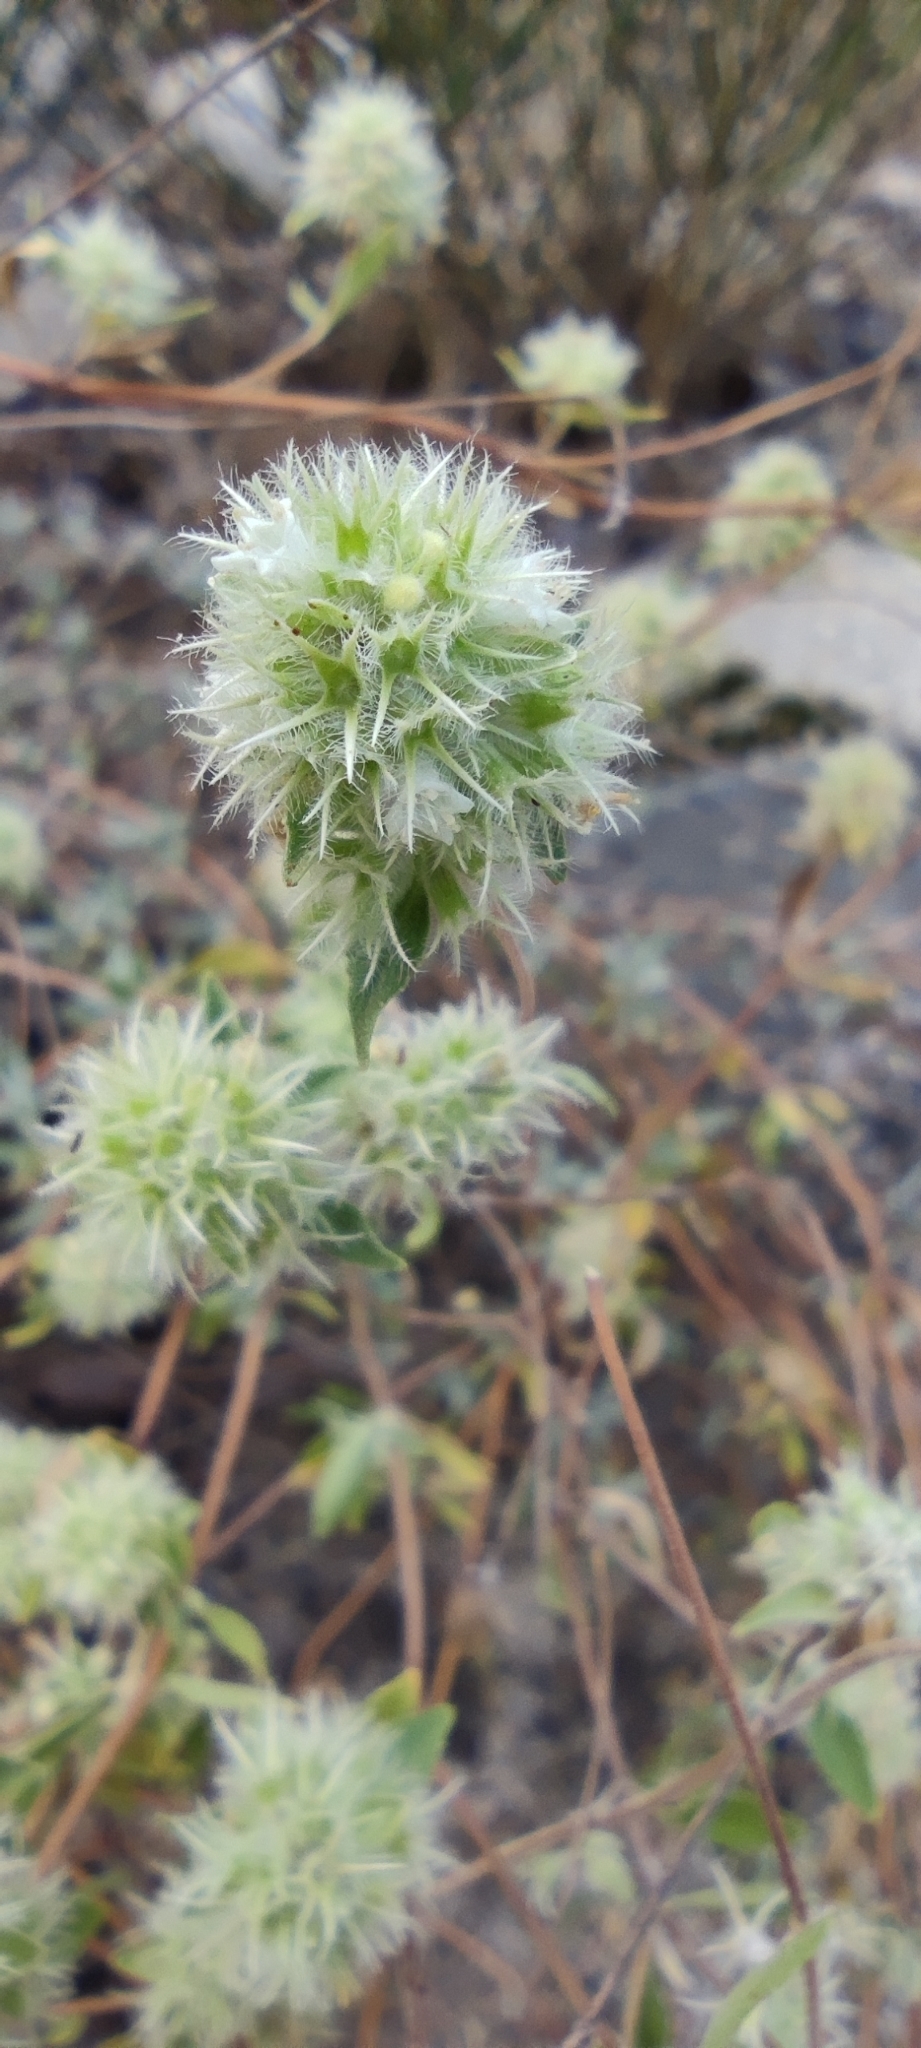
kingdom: Plantae
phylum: Tracheophyta
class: Magnoliopsida
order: Lamiales
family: Lamiaceae
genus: Thymus
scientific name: Thymus mastichina
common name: Mastic thyme
